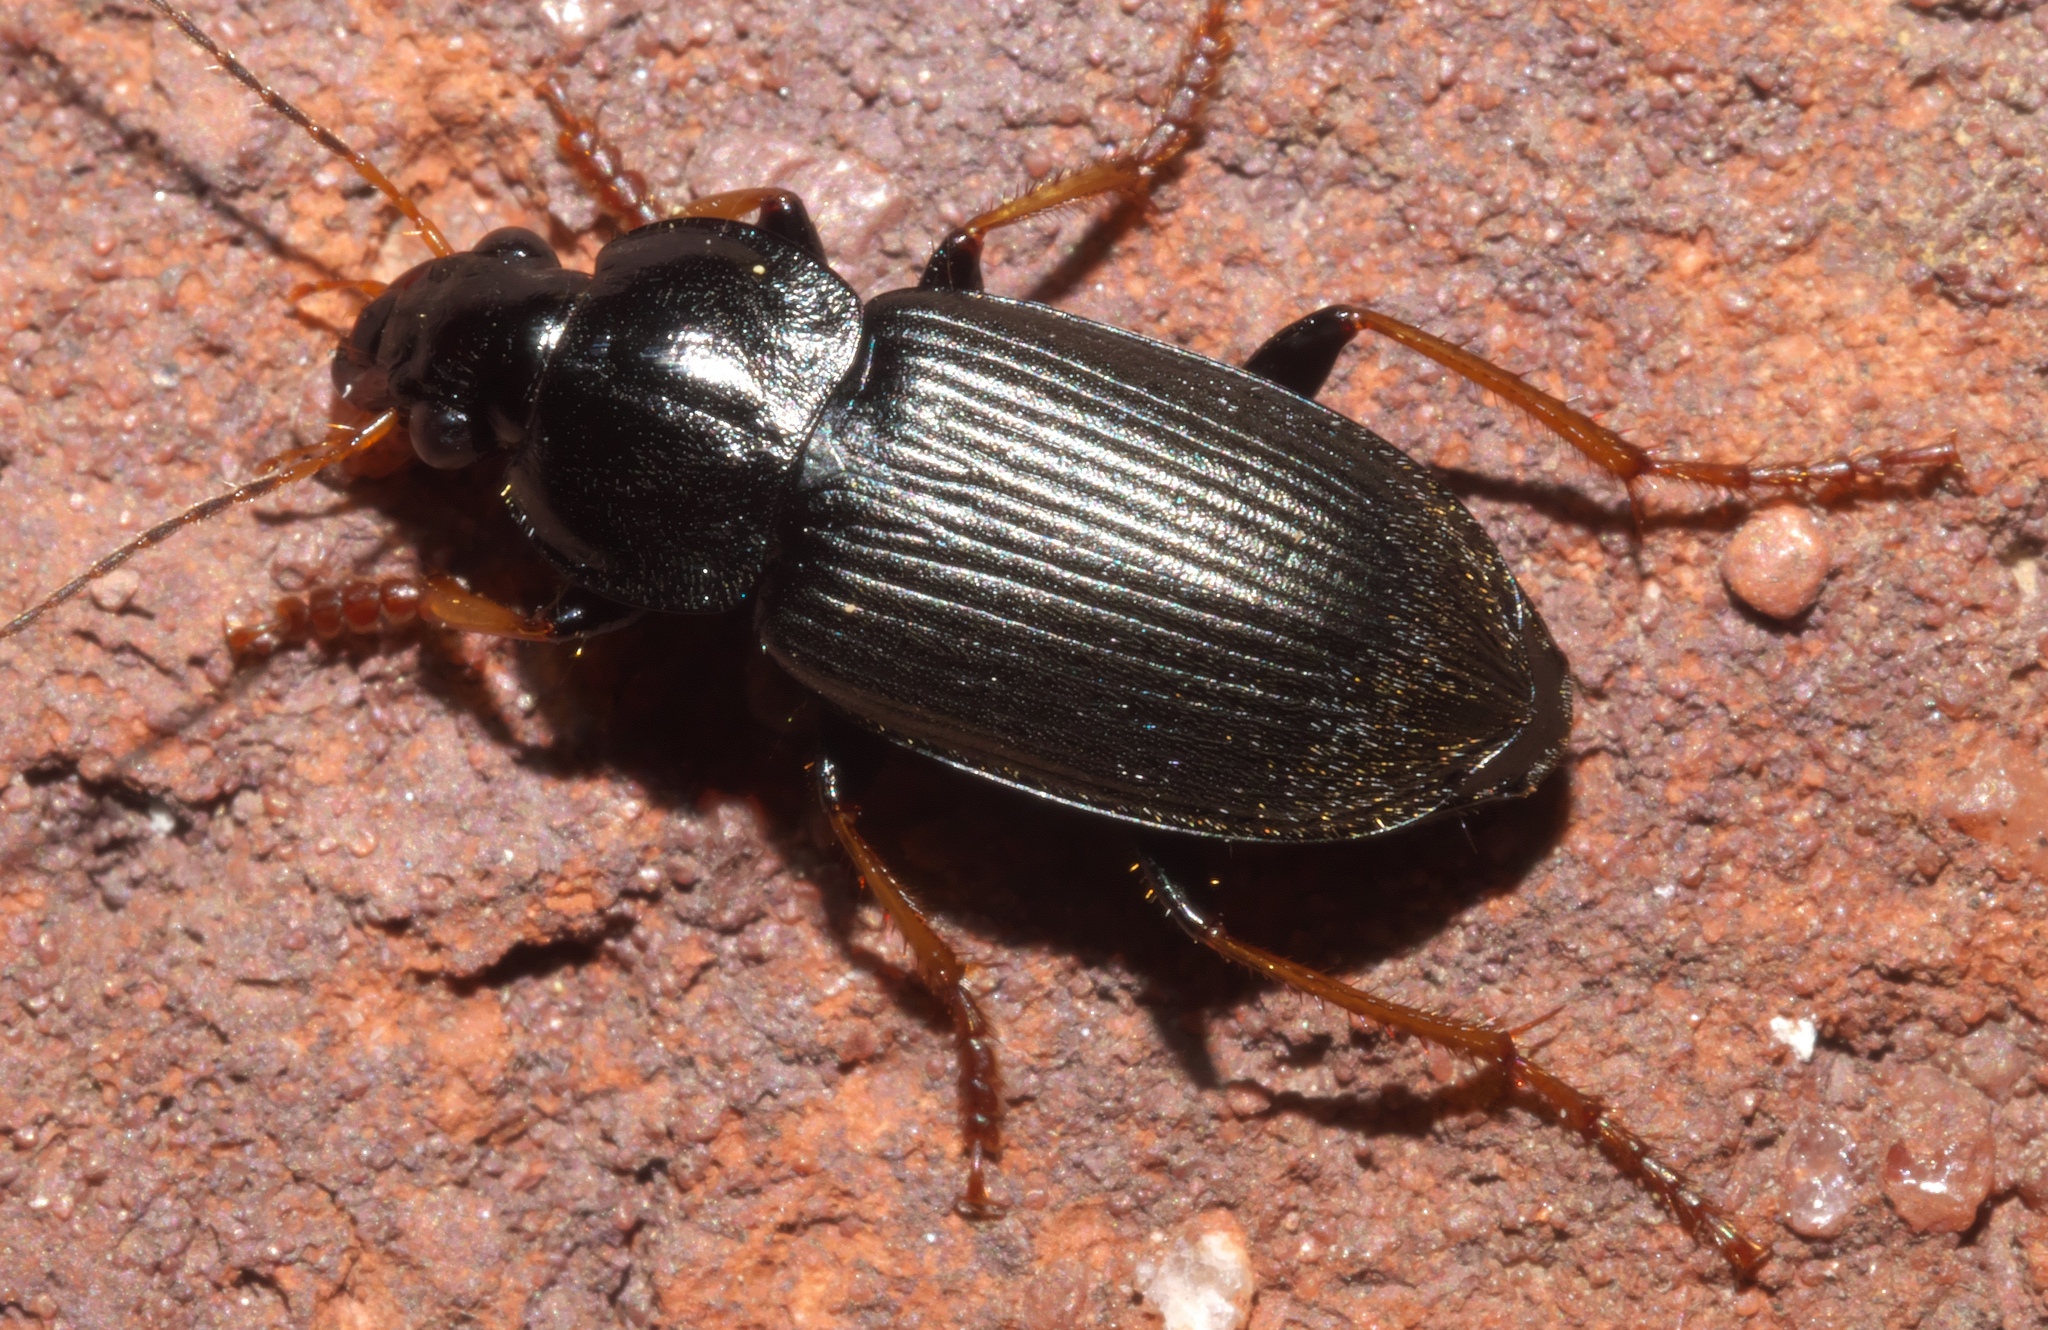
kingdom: Animalia
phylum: Arthropoda
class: Insecta
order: Coleoptera
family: Carabidae
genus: Amphasia
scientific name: Amphasia sericea
